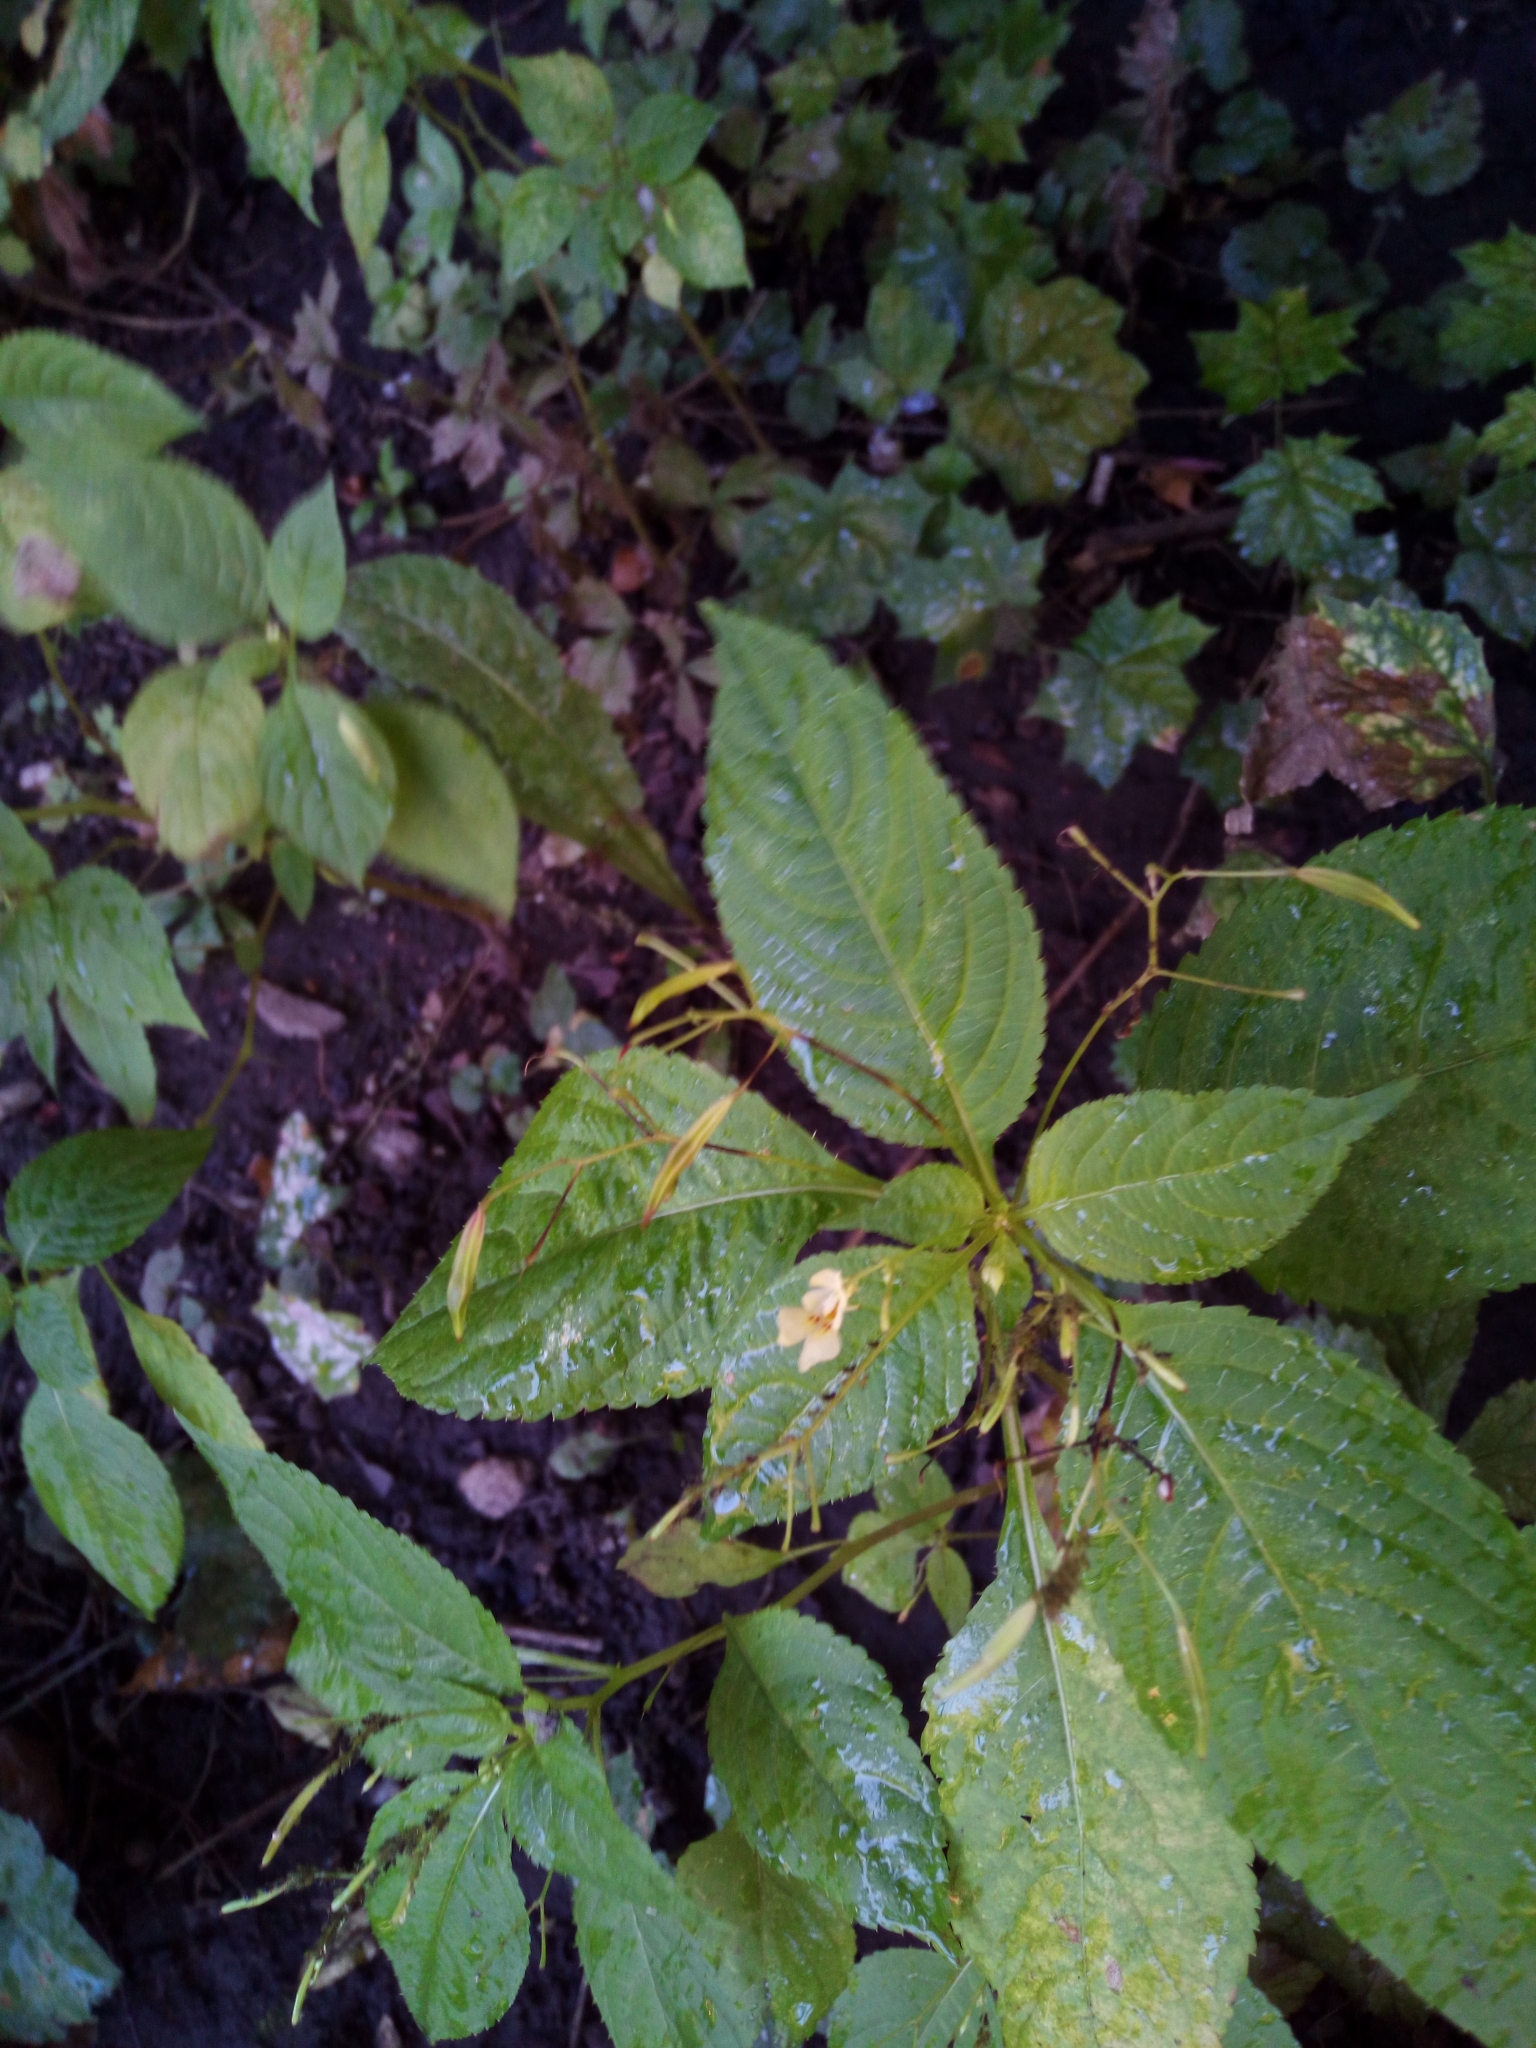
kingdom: Plantae
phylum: Tracheophyta
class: Magnoliopsida
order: Ericales
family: Balsaminaceae
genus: Impatiens
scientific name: Impatiens parviflora
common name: Small balsam
